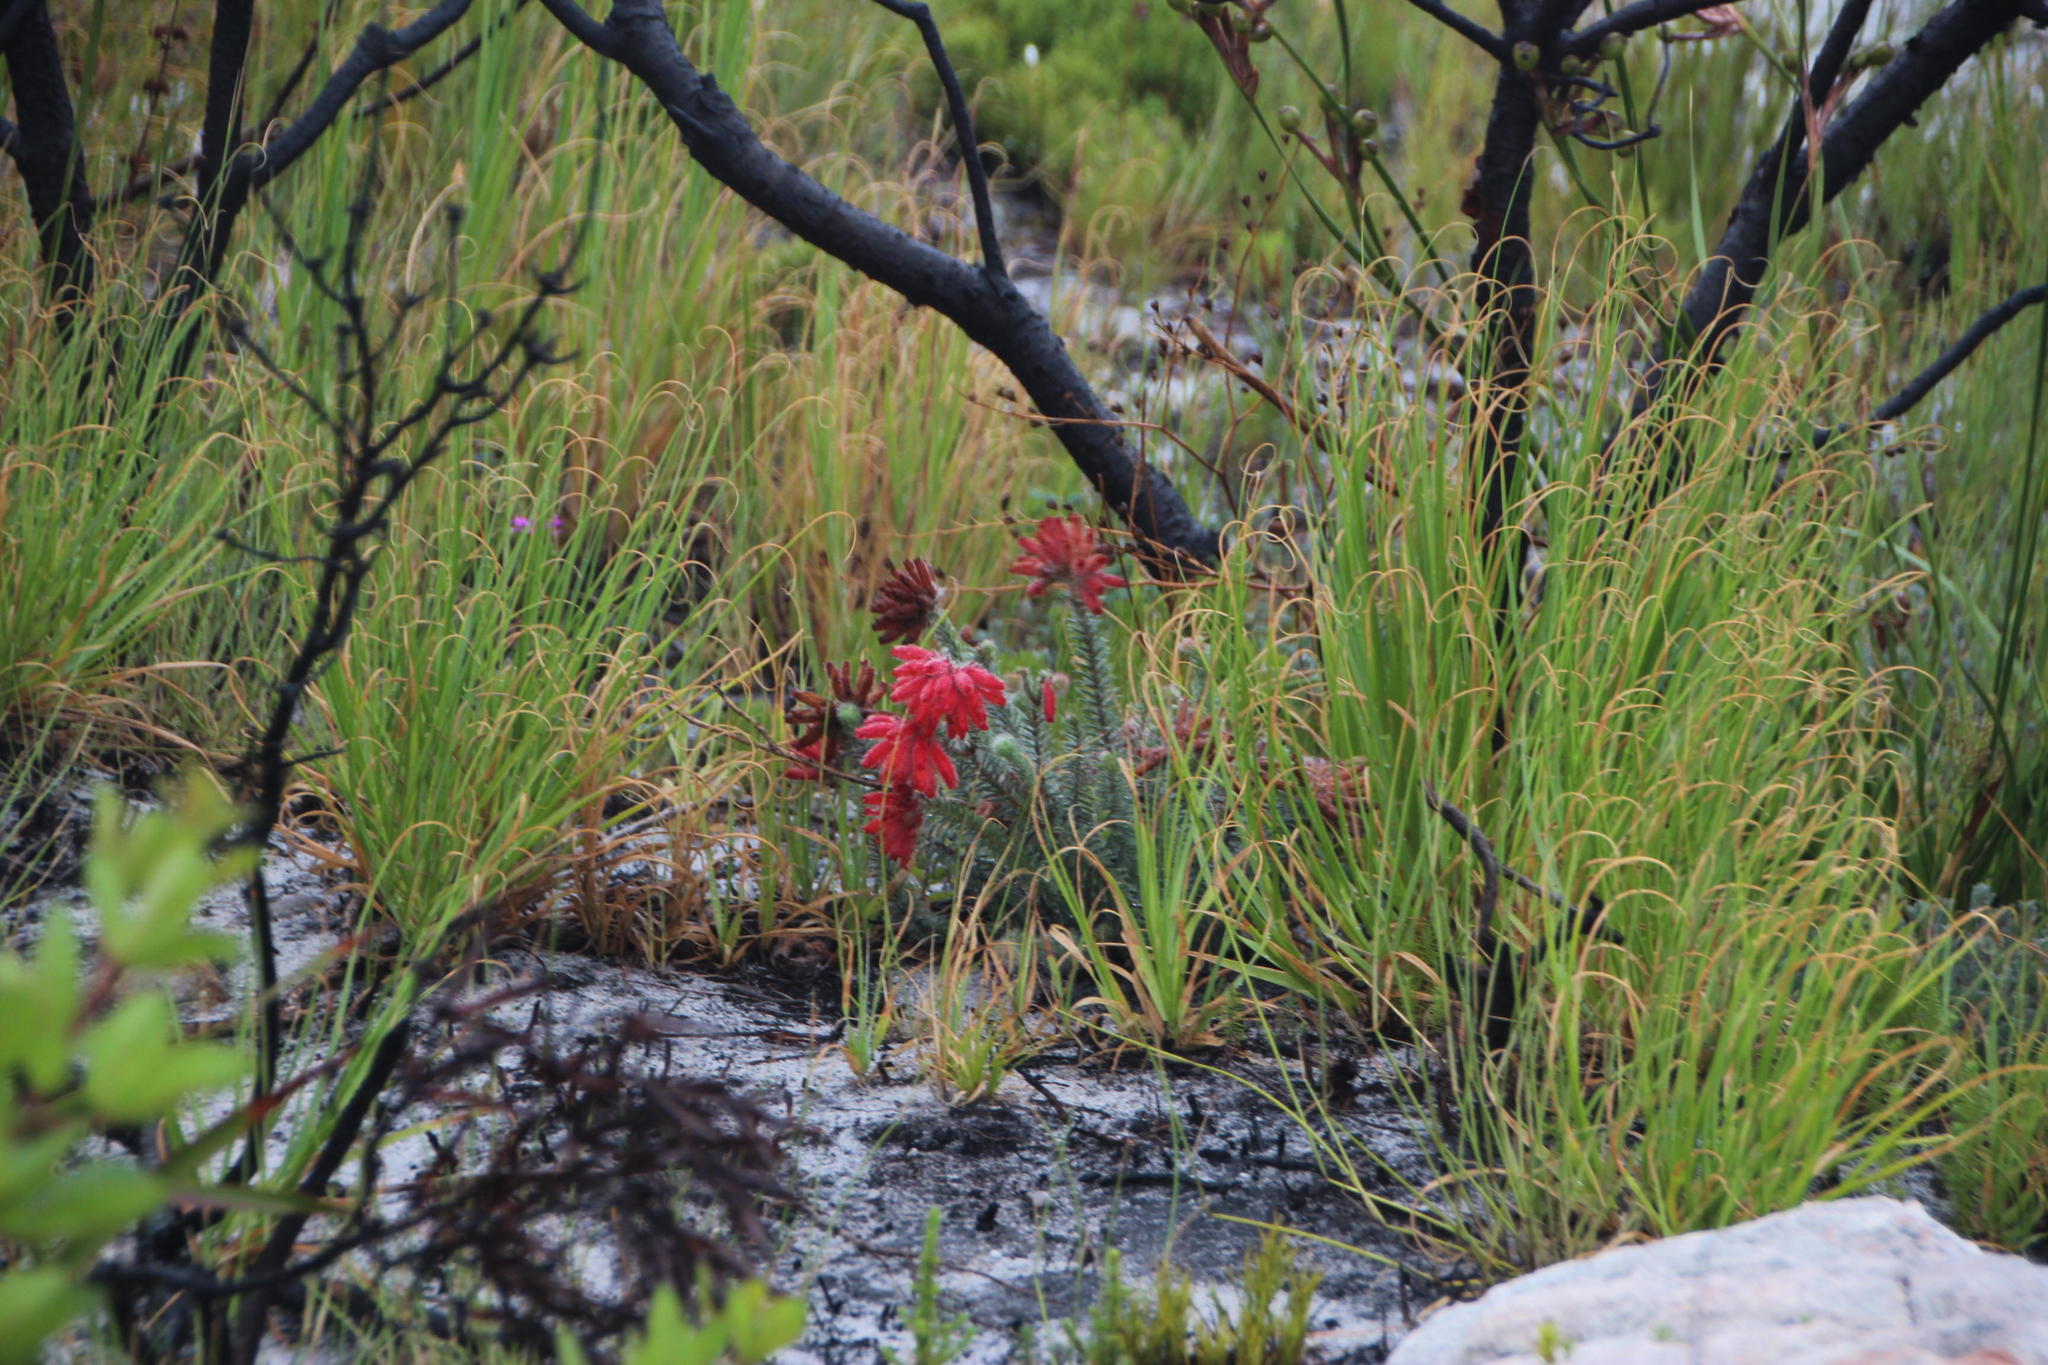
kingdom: Plantae
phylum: Tracheophyta
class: Magnoliopsida
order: Ericales
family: Ericaceae
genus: Erica
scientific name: Erica cerinthoides
